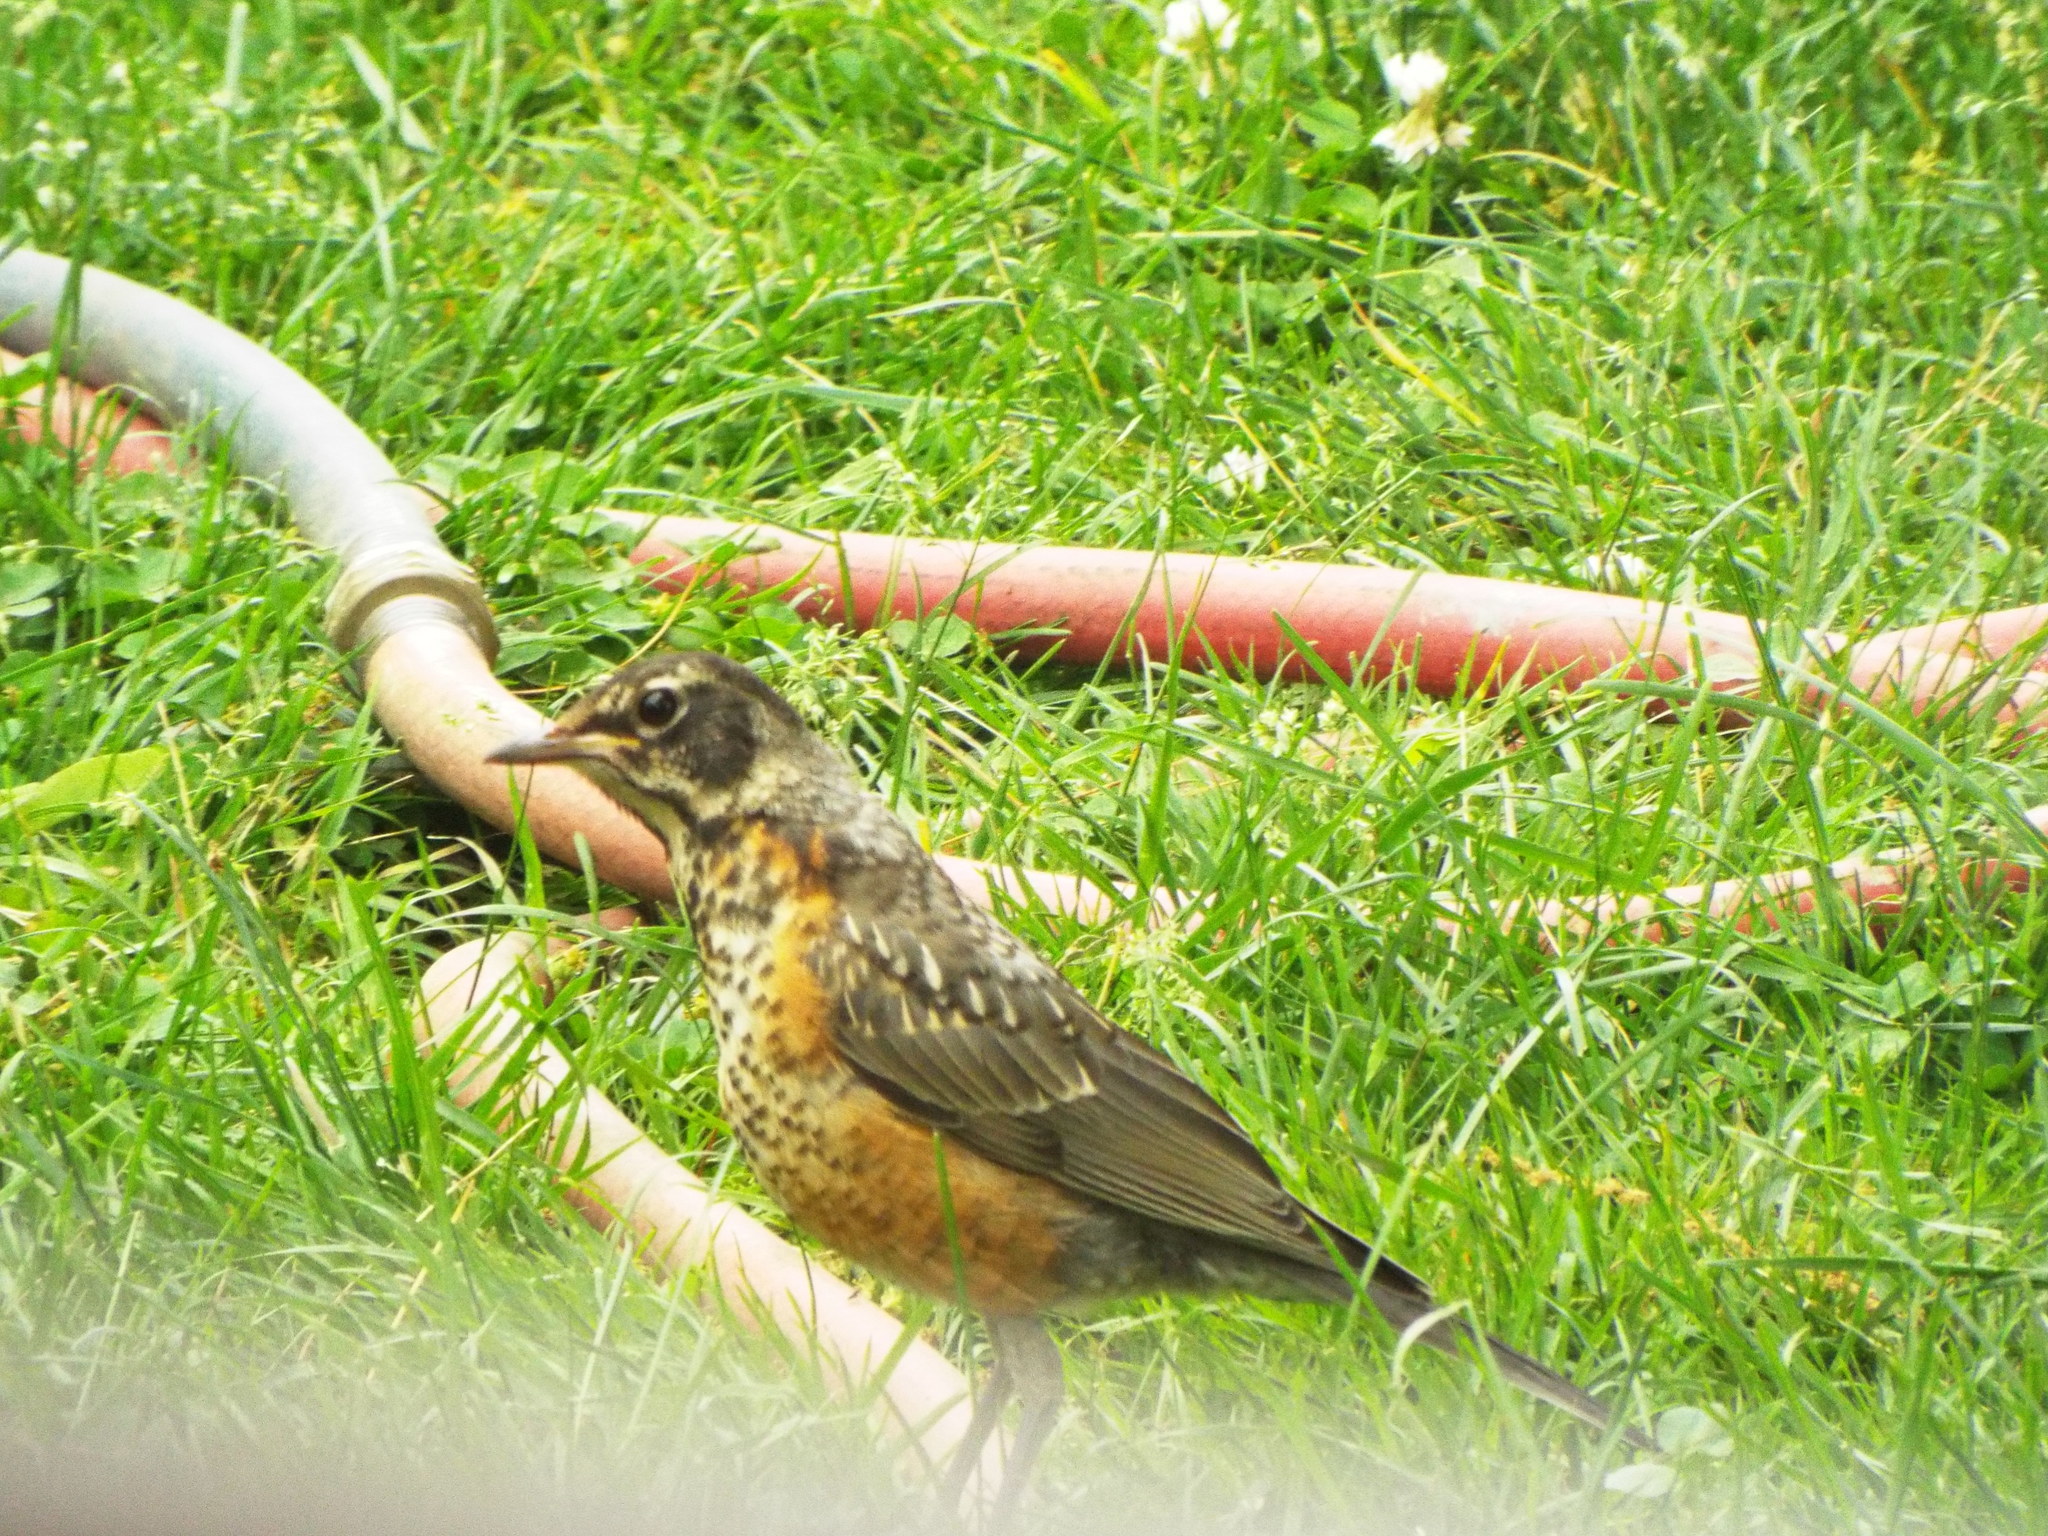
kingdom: Animalia
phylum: Chordata
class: Aves
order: Passeriformes
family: Turdidae
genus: Turdus
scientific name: Turdus migratorius
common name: American robin
